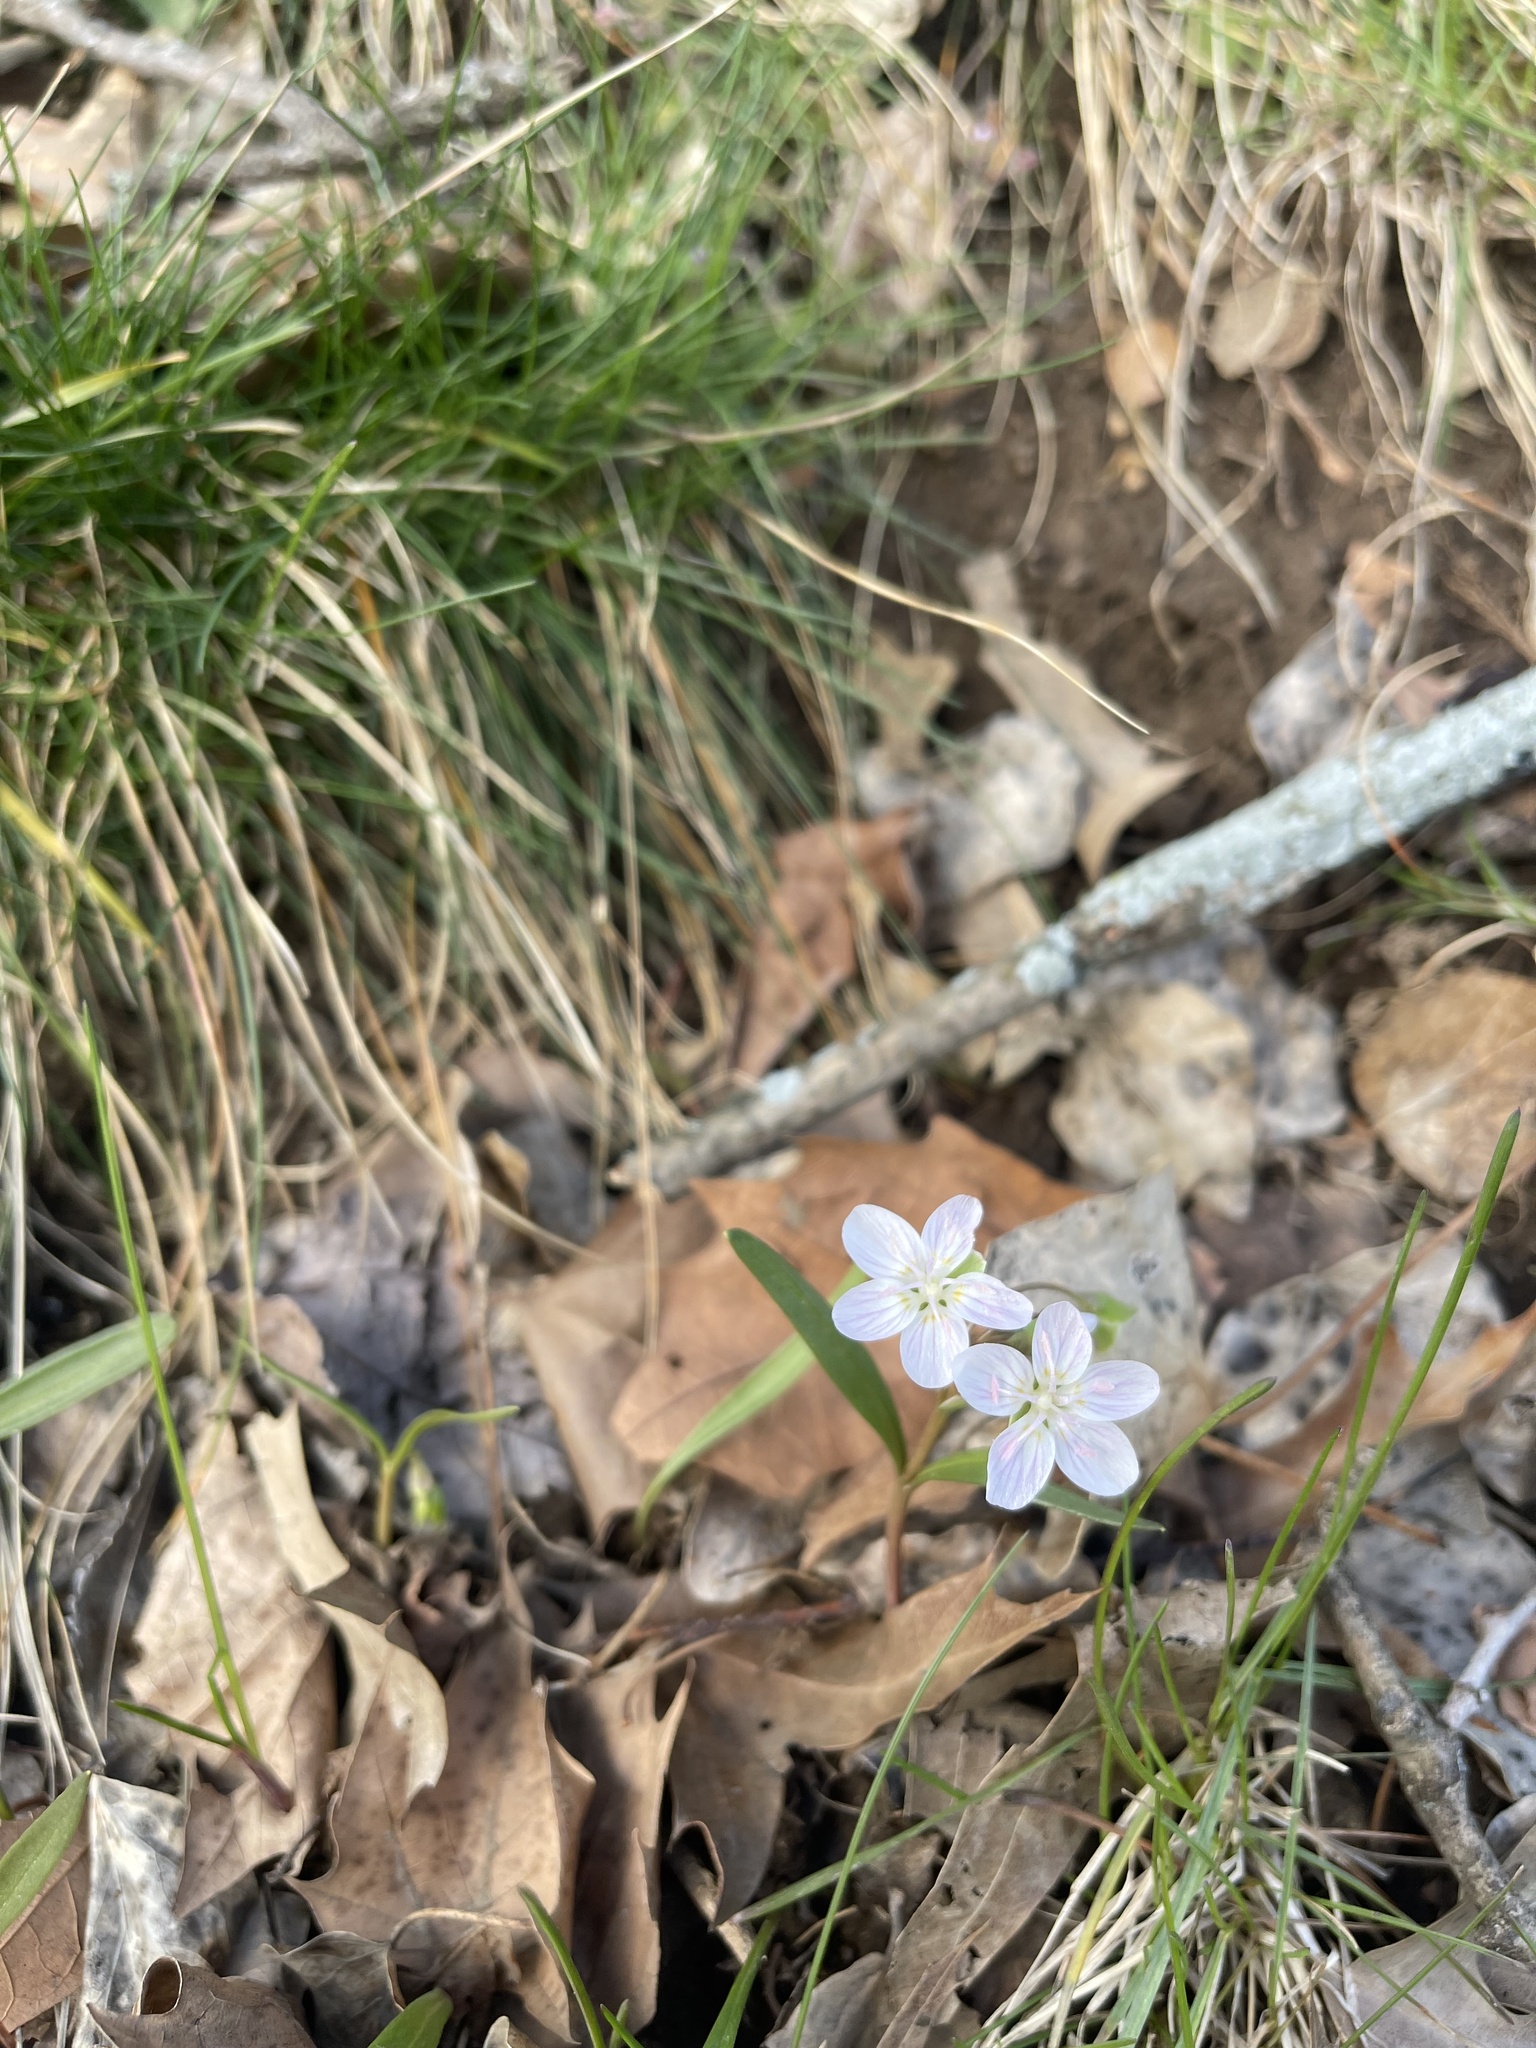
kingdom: Plantae
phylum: Tracheophyta
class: Magnoliopsida
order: Caryophyllales
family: Montiaceae
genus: Claytonia
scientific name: Claytonia virginica
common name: Virginia springbeauty
